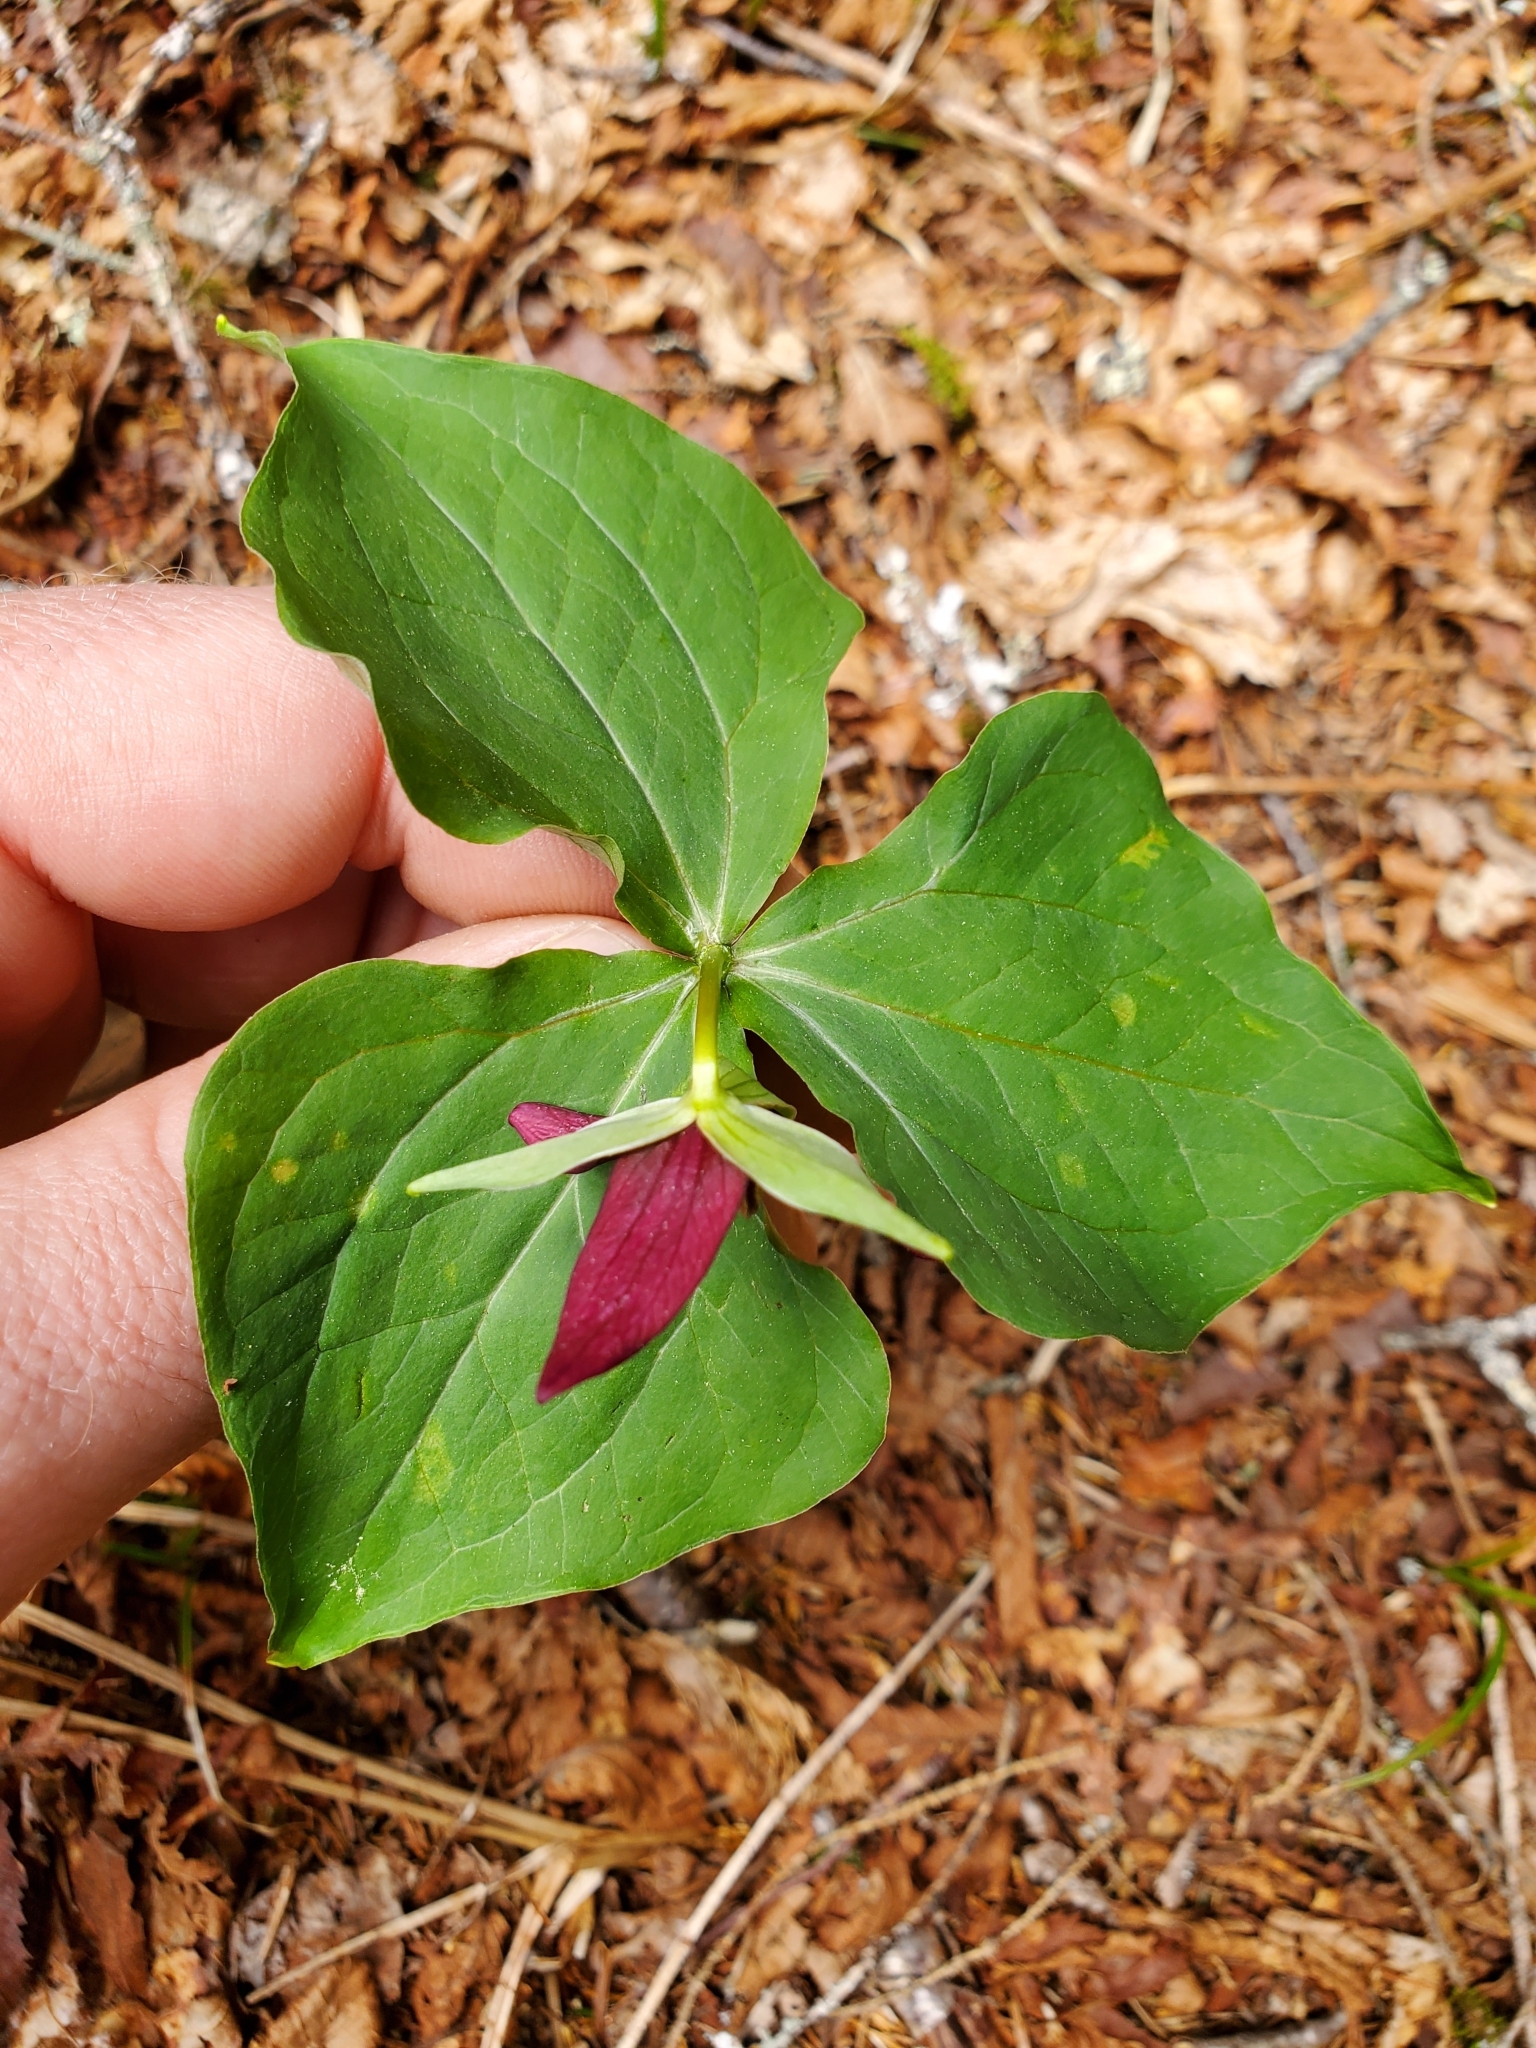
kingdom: Plantae
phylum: Tracheophyta
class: Liliopsida
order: Liliales
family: Melanthiaceae
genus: Trillium
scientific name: Trillium erectum
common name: Purple trillium
